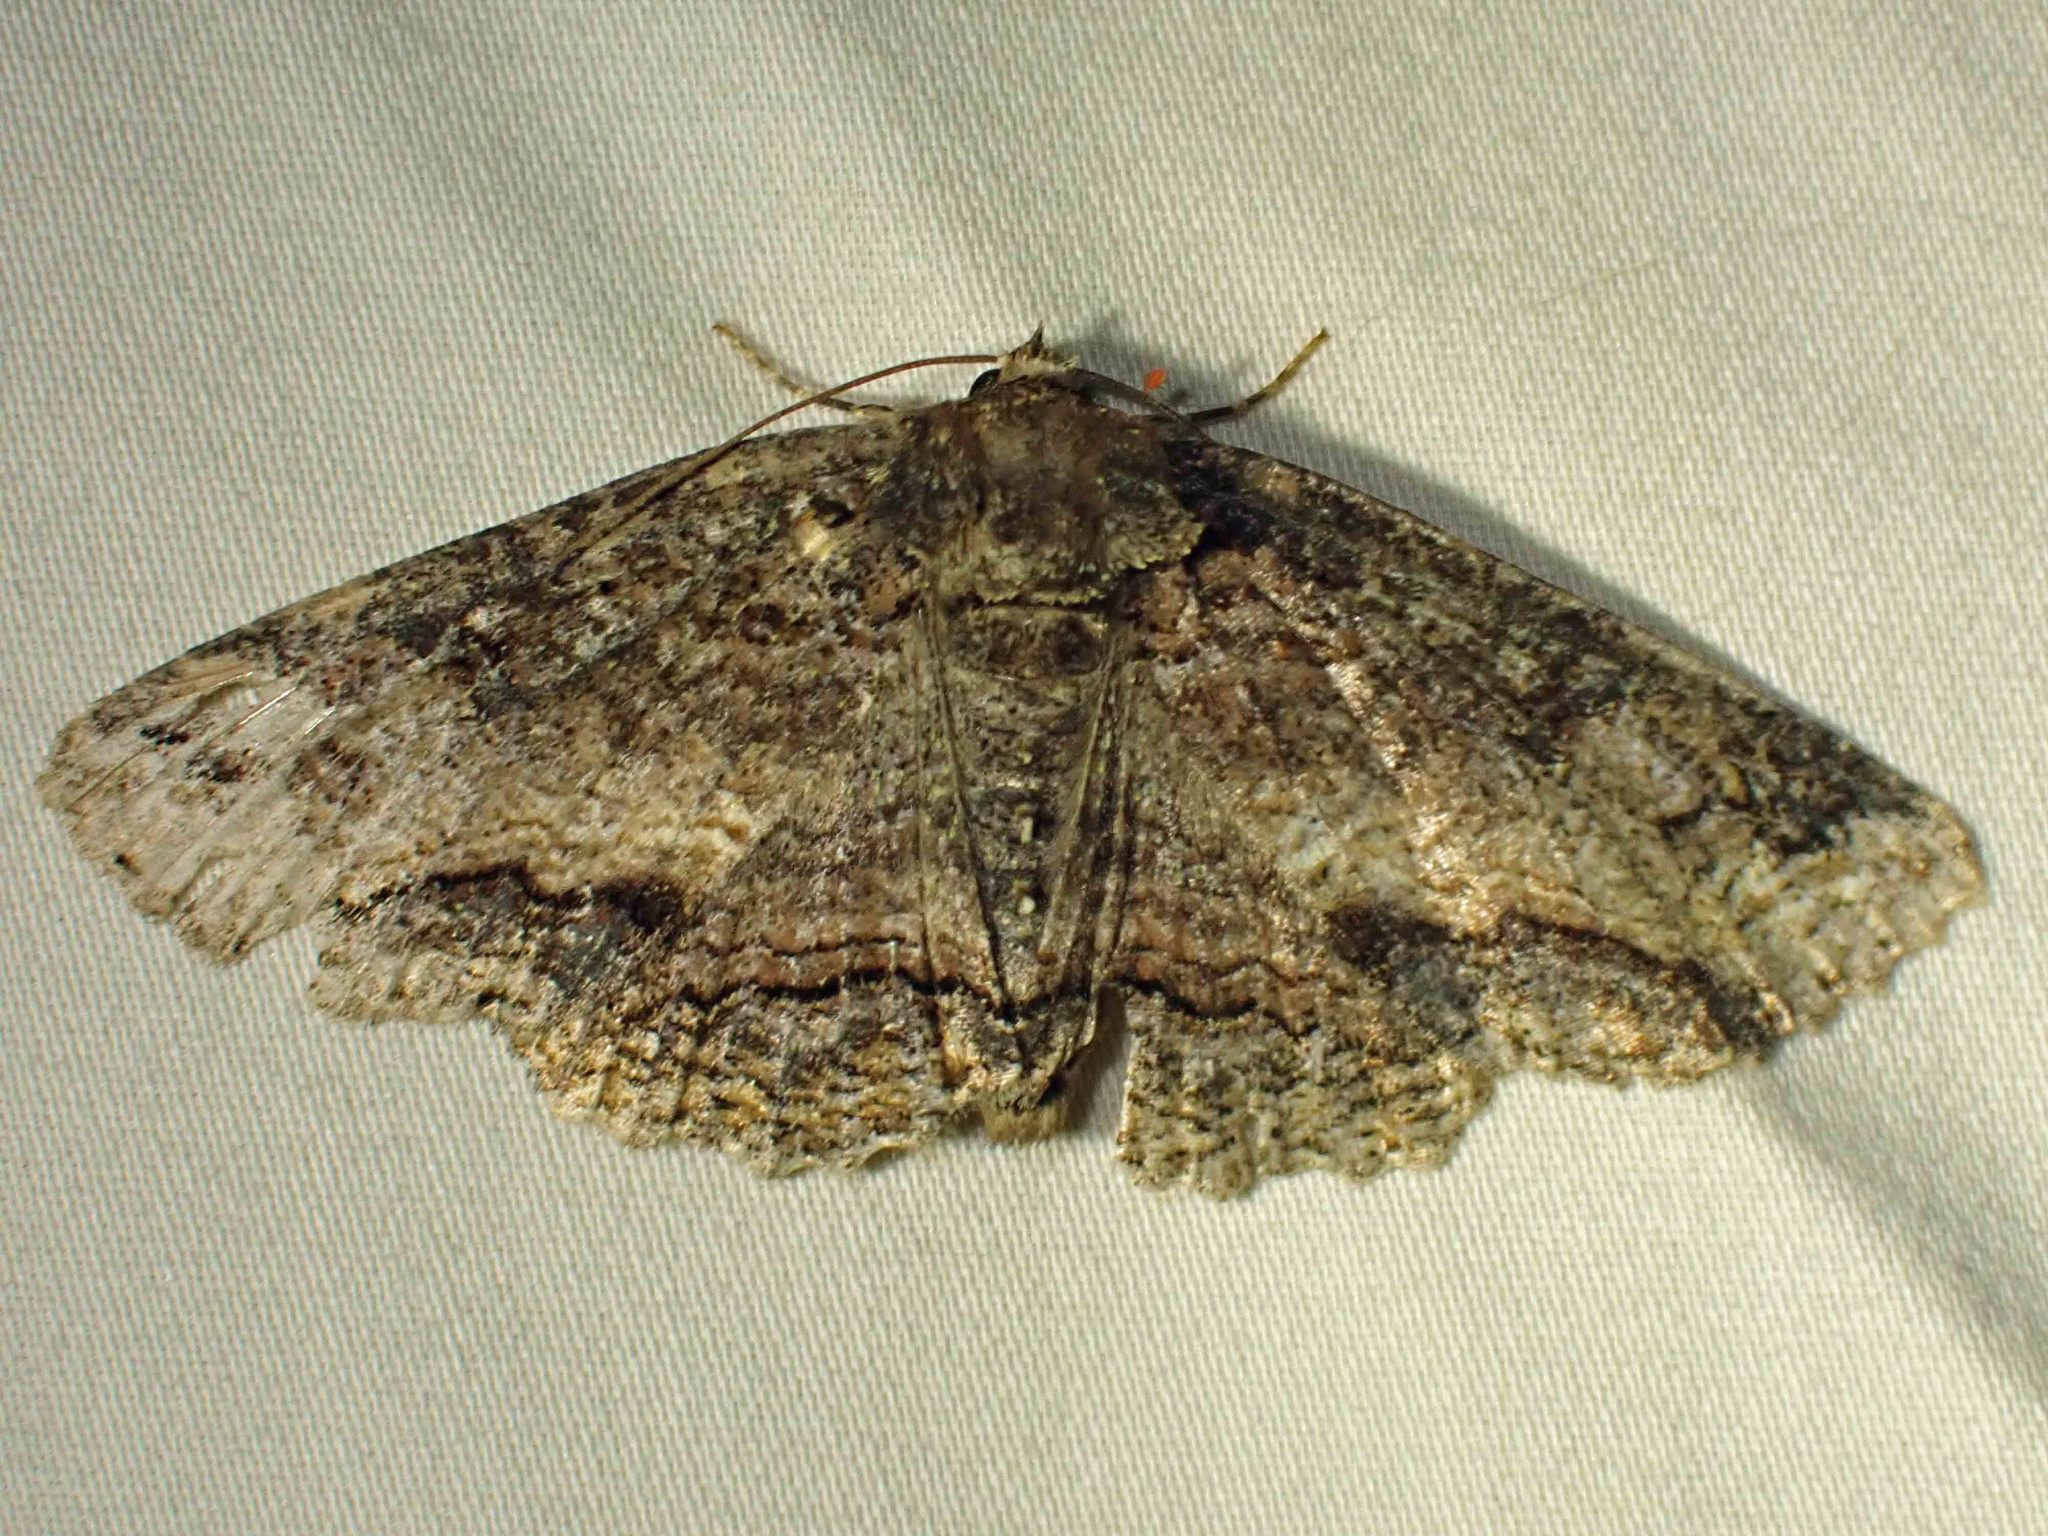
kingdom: Animalia
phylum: Arthropoda
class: Insecta
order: Lepidoptera
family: Erebidae
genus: Zale
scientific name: Zale minerea
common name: Colorful zale moth
